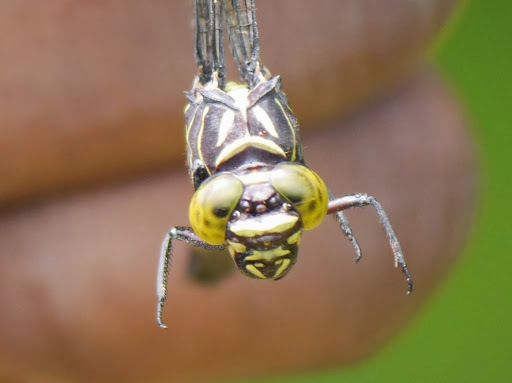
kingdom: Animalia
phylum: Arthropoda
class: Insecta
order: Odonata
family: Gomphidae
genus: Diastatomma
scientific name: Diastatomma multilineatum
